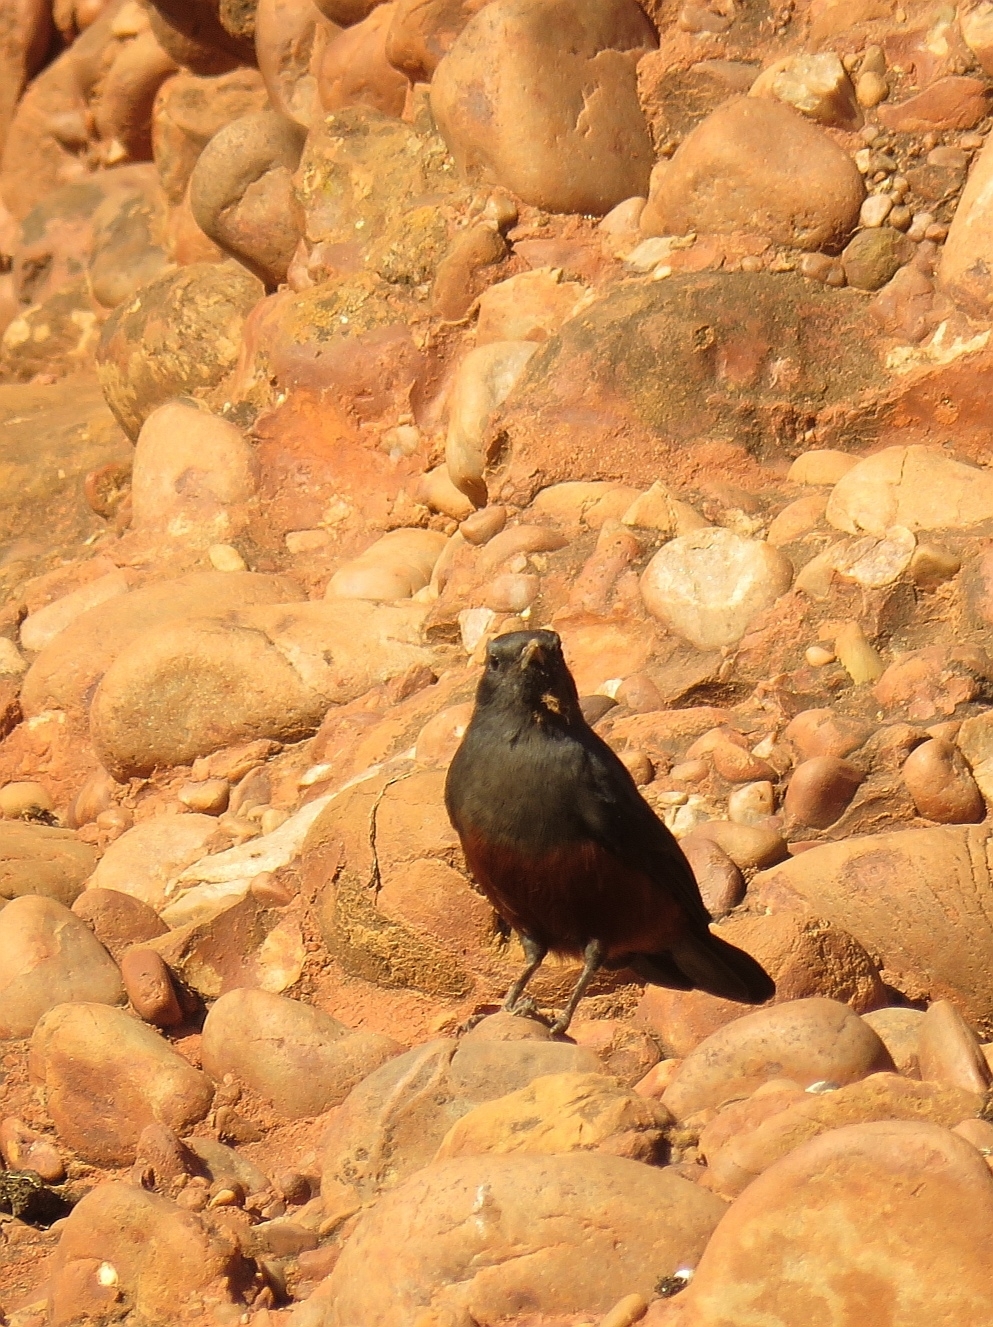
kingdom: Animalia
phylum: Chordata
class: Aves
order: Passeriformes
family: Muscicapidae
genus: Thamnolaea
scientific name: Thamnolaea cinnamomeiventris
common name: Mocking cliff chat
